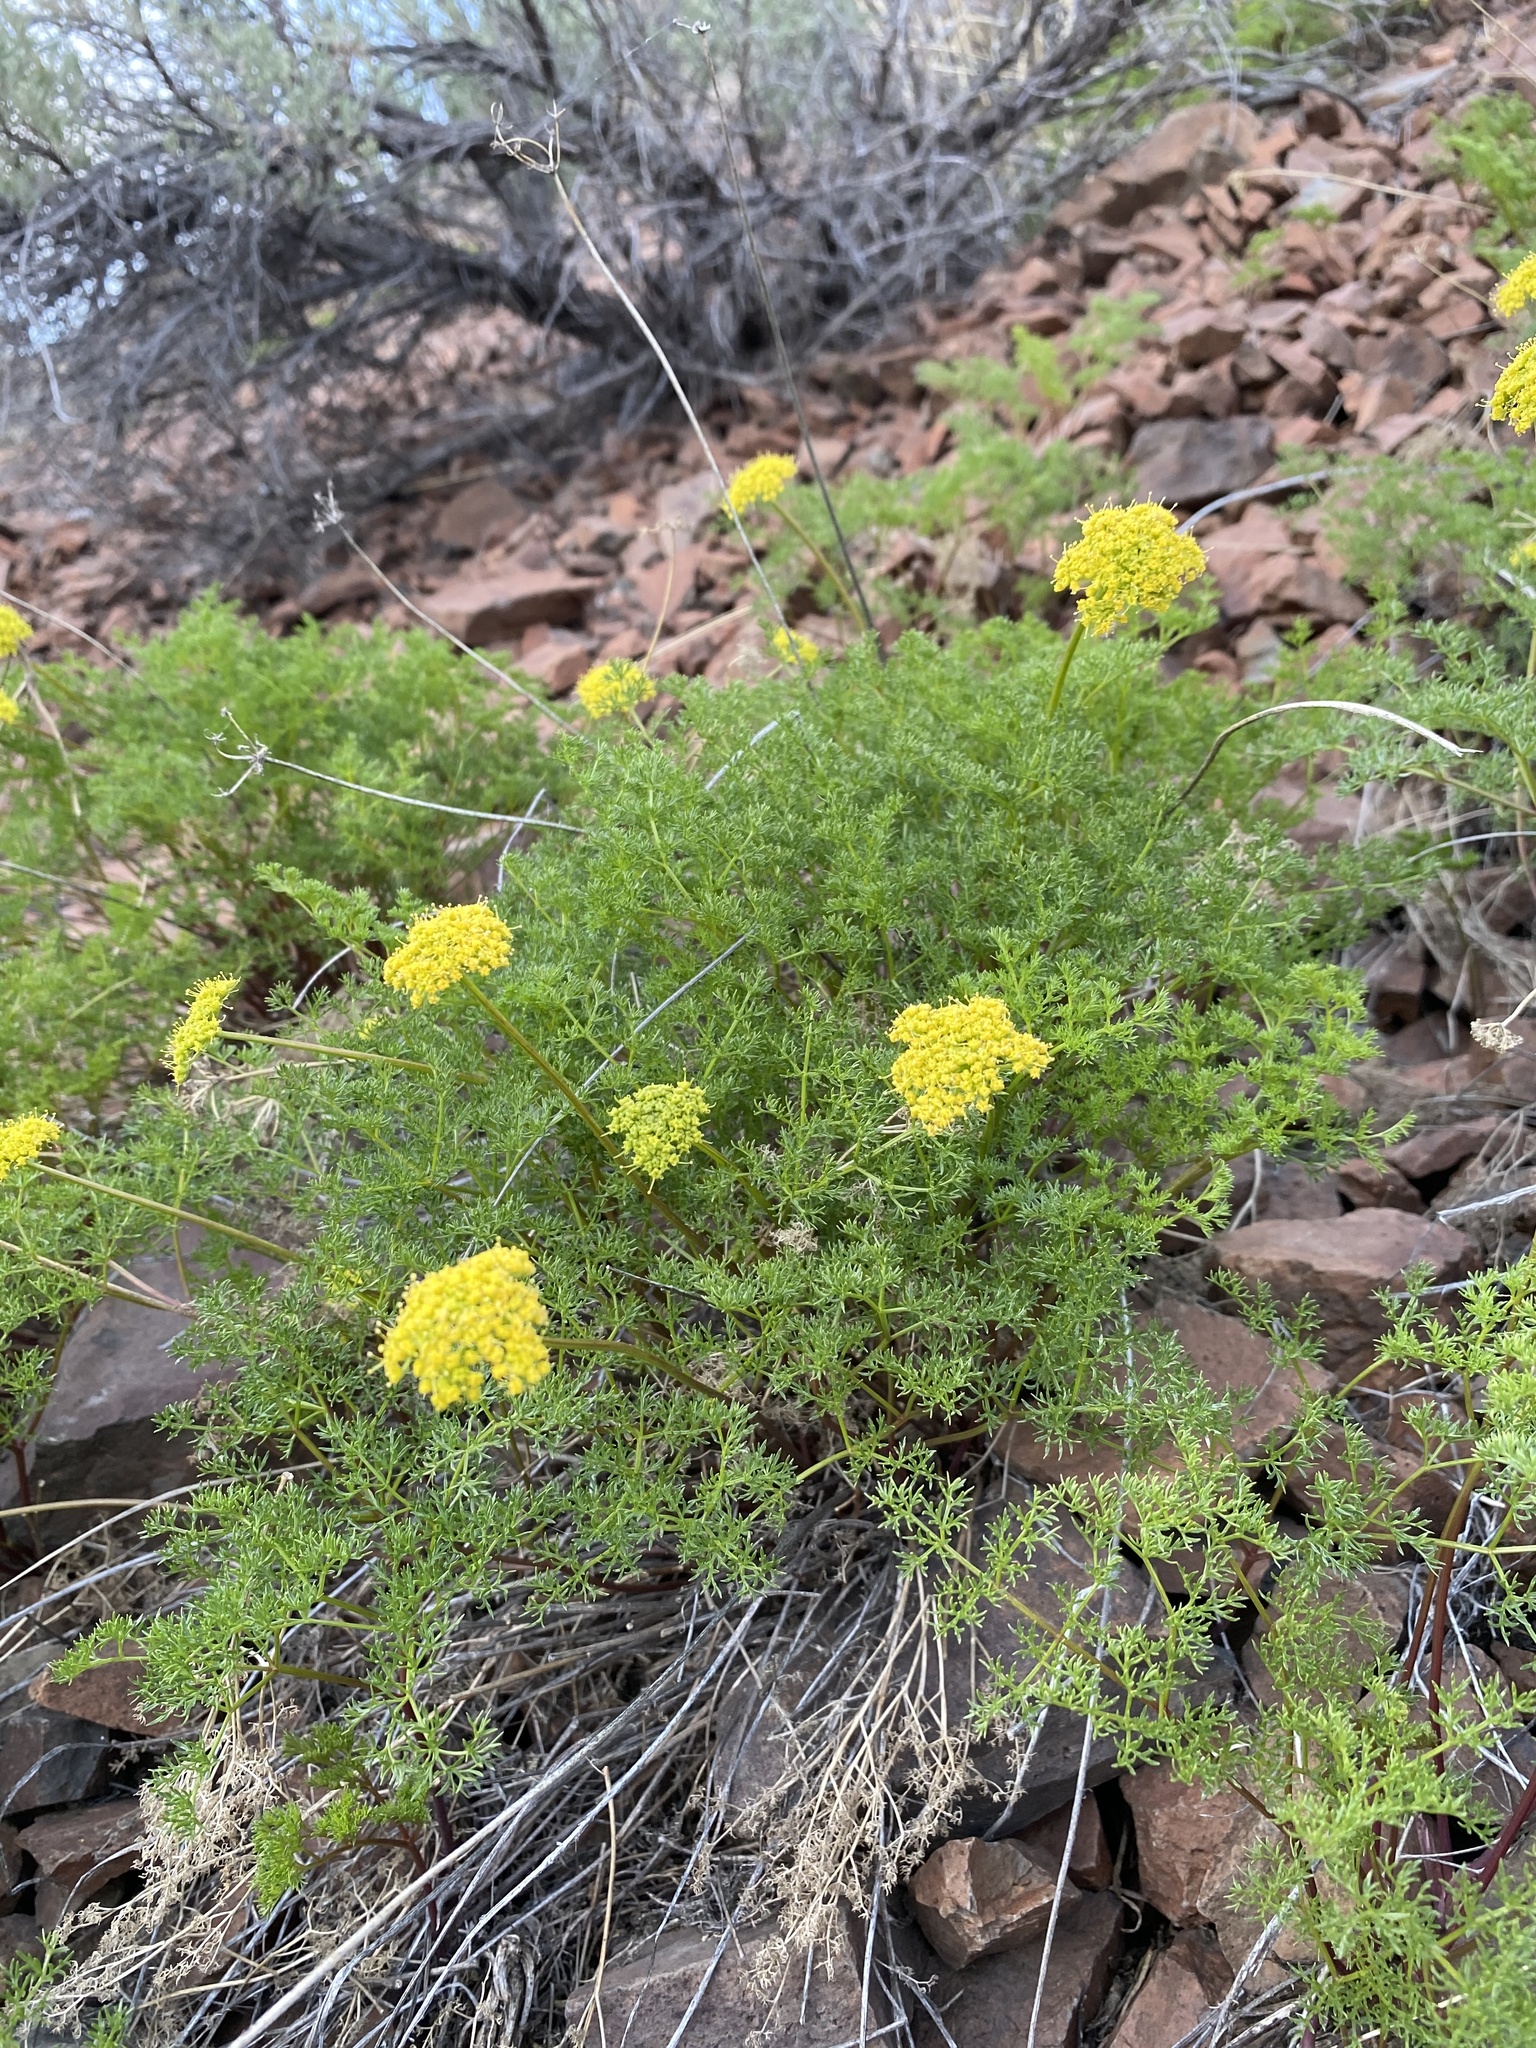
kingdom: Plantae
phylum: Tracheophyta
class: Magnoliopsida
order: Apiales
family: Apiaceae
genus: Pteryxia
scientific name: Pteryxia terebinthina
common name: Turpentine wavewing
